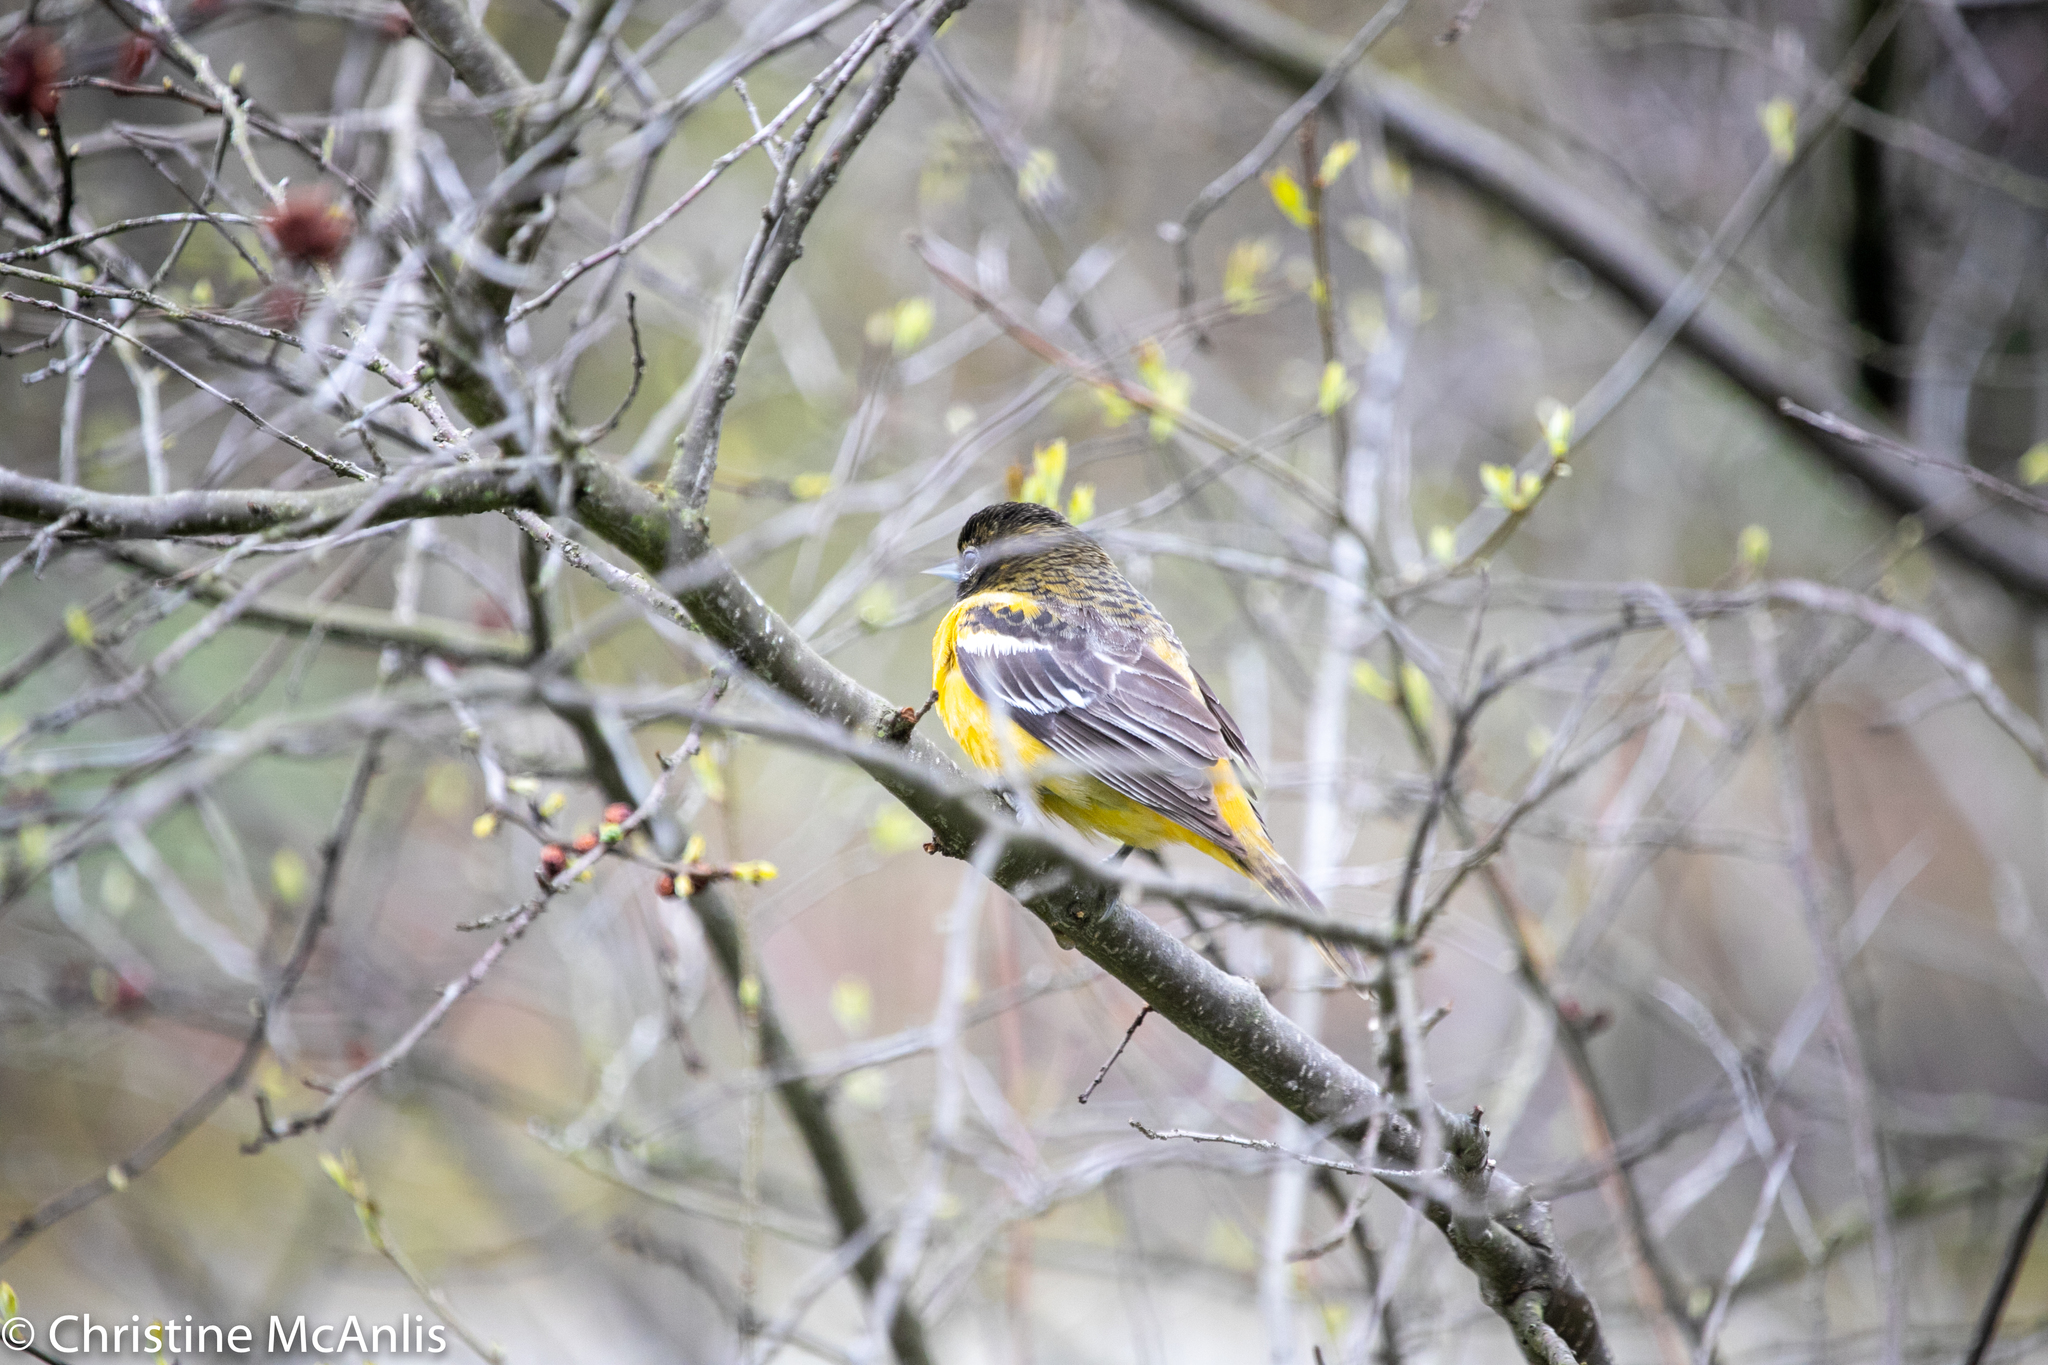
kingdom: Animalia
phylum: Chordata
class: Aves
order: Passeriformes
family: Icteridae
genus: Icterus
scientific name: Icterus galbula
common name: Baltimore oriole
